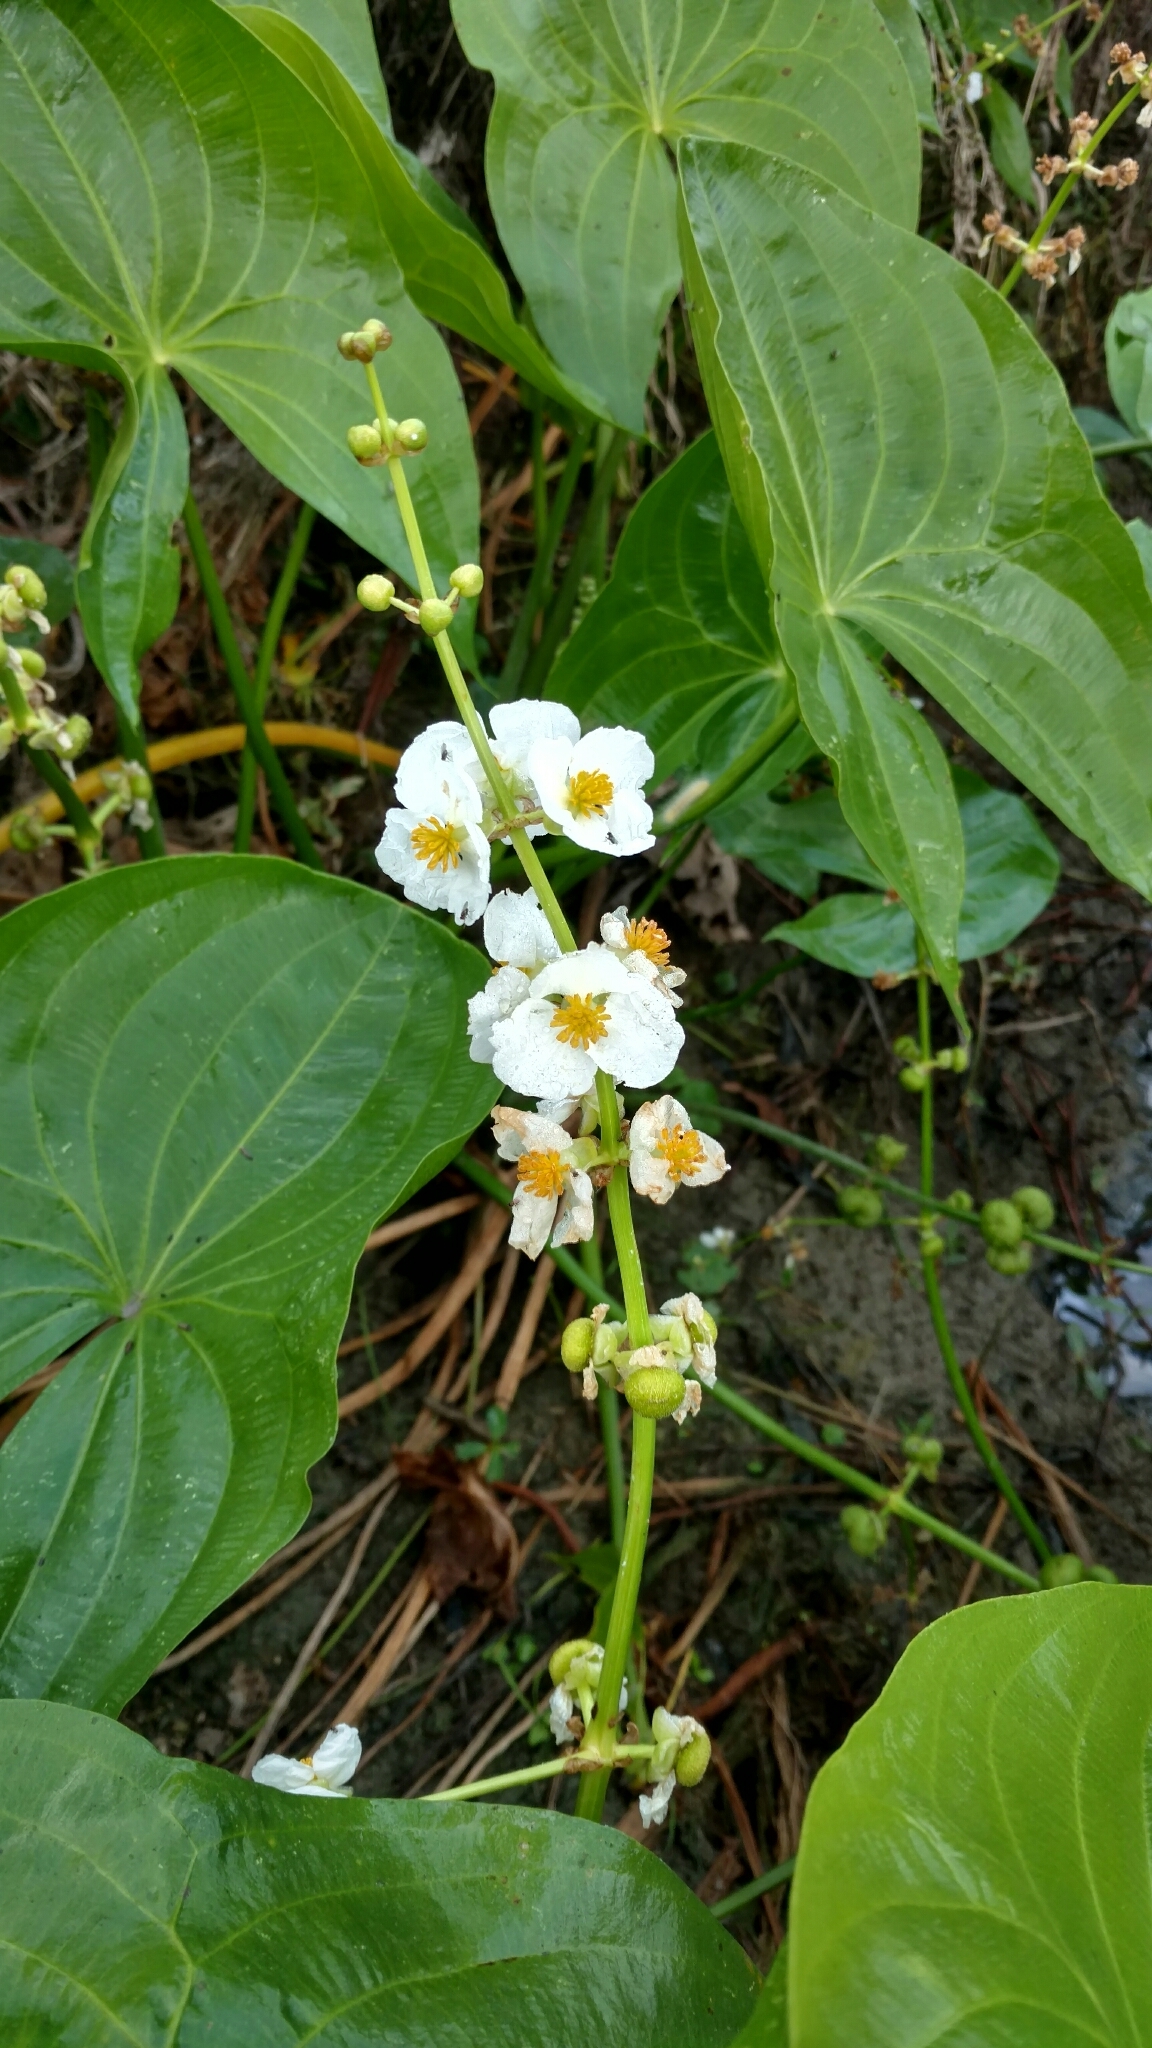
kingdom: Plantae
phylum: Tracheophyta
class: Liliopsida
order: Alismatales
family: Alismataceae
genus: Sagittaria
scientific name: Sagittaria latifolia
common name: Duck-potato
